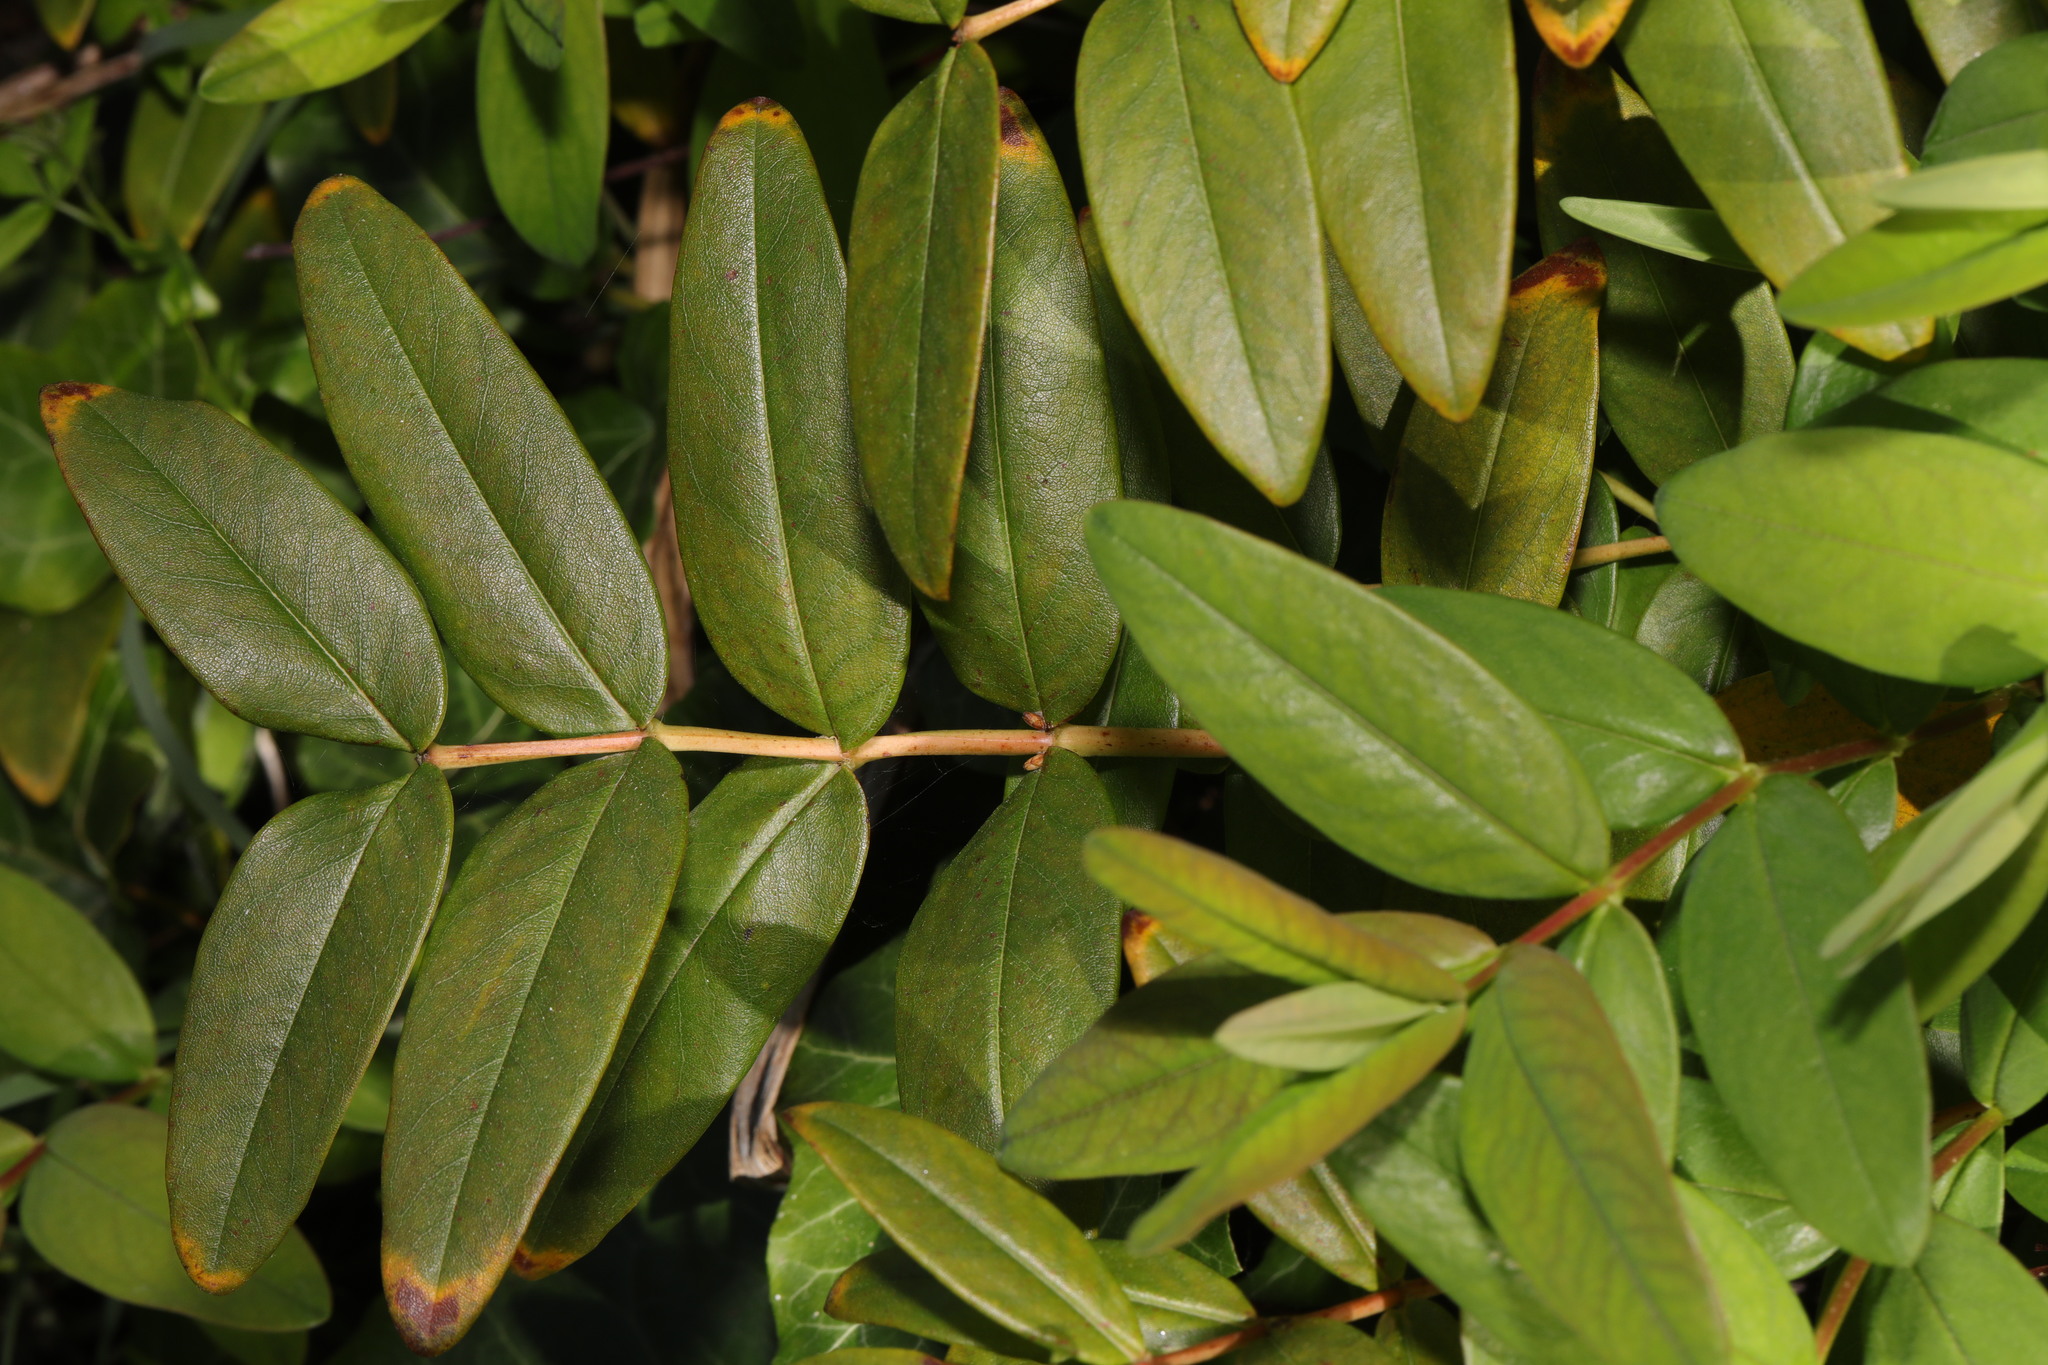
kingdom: Plantae
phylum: Tracheophyta
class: Magnoliopsida
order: Malpighiales
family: Hypericaceae
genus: Hypericum
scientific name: Hypericum calycinum
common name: Rose-of-sharon
